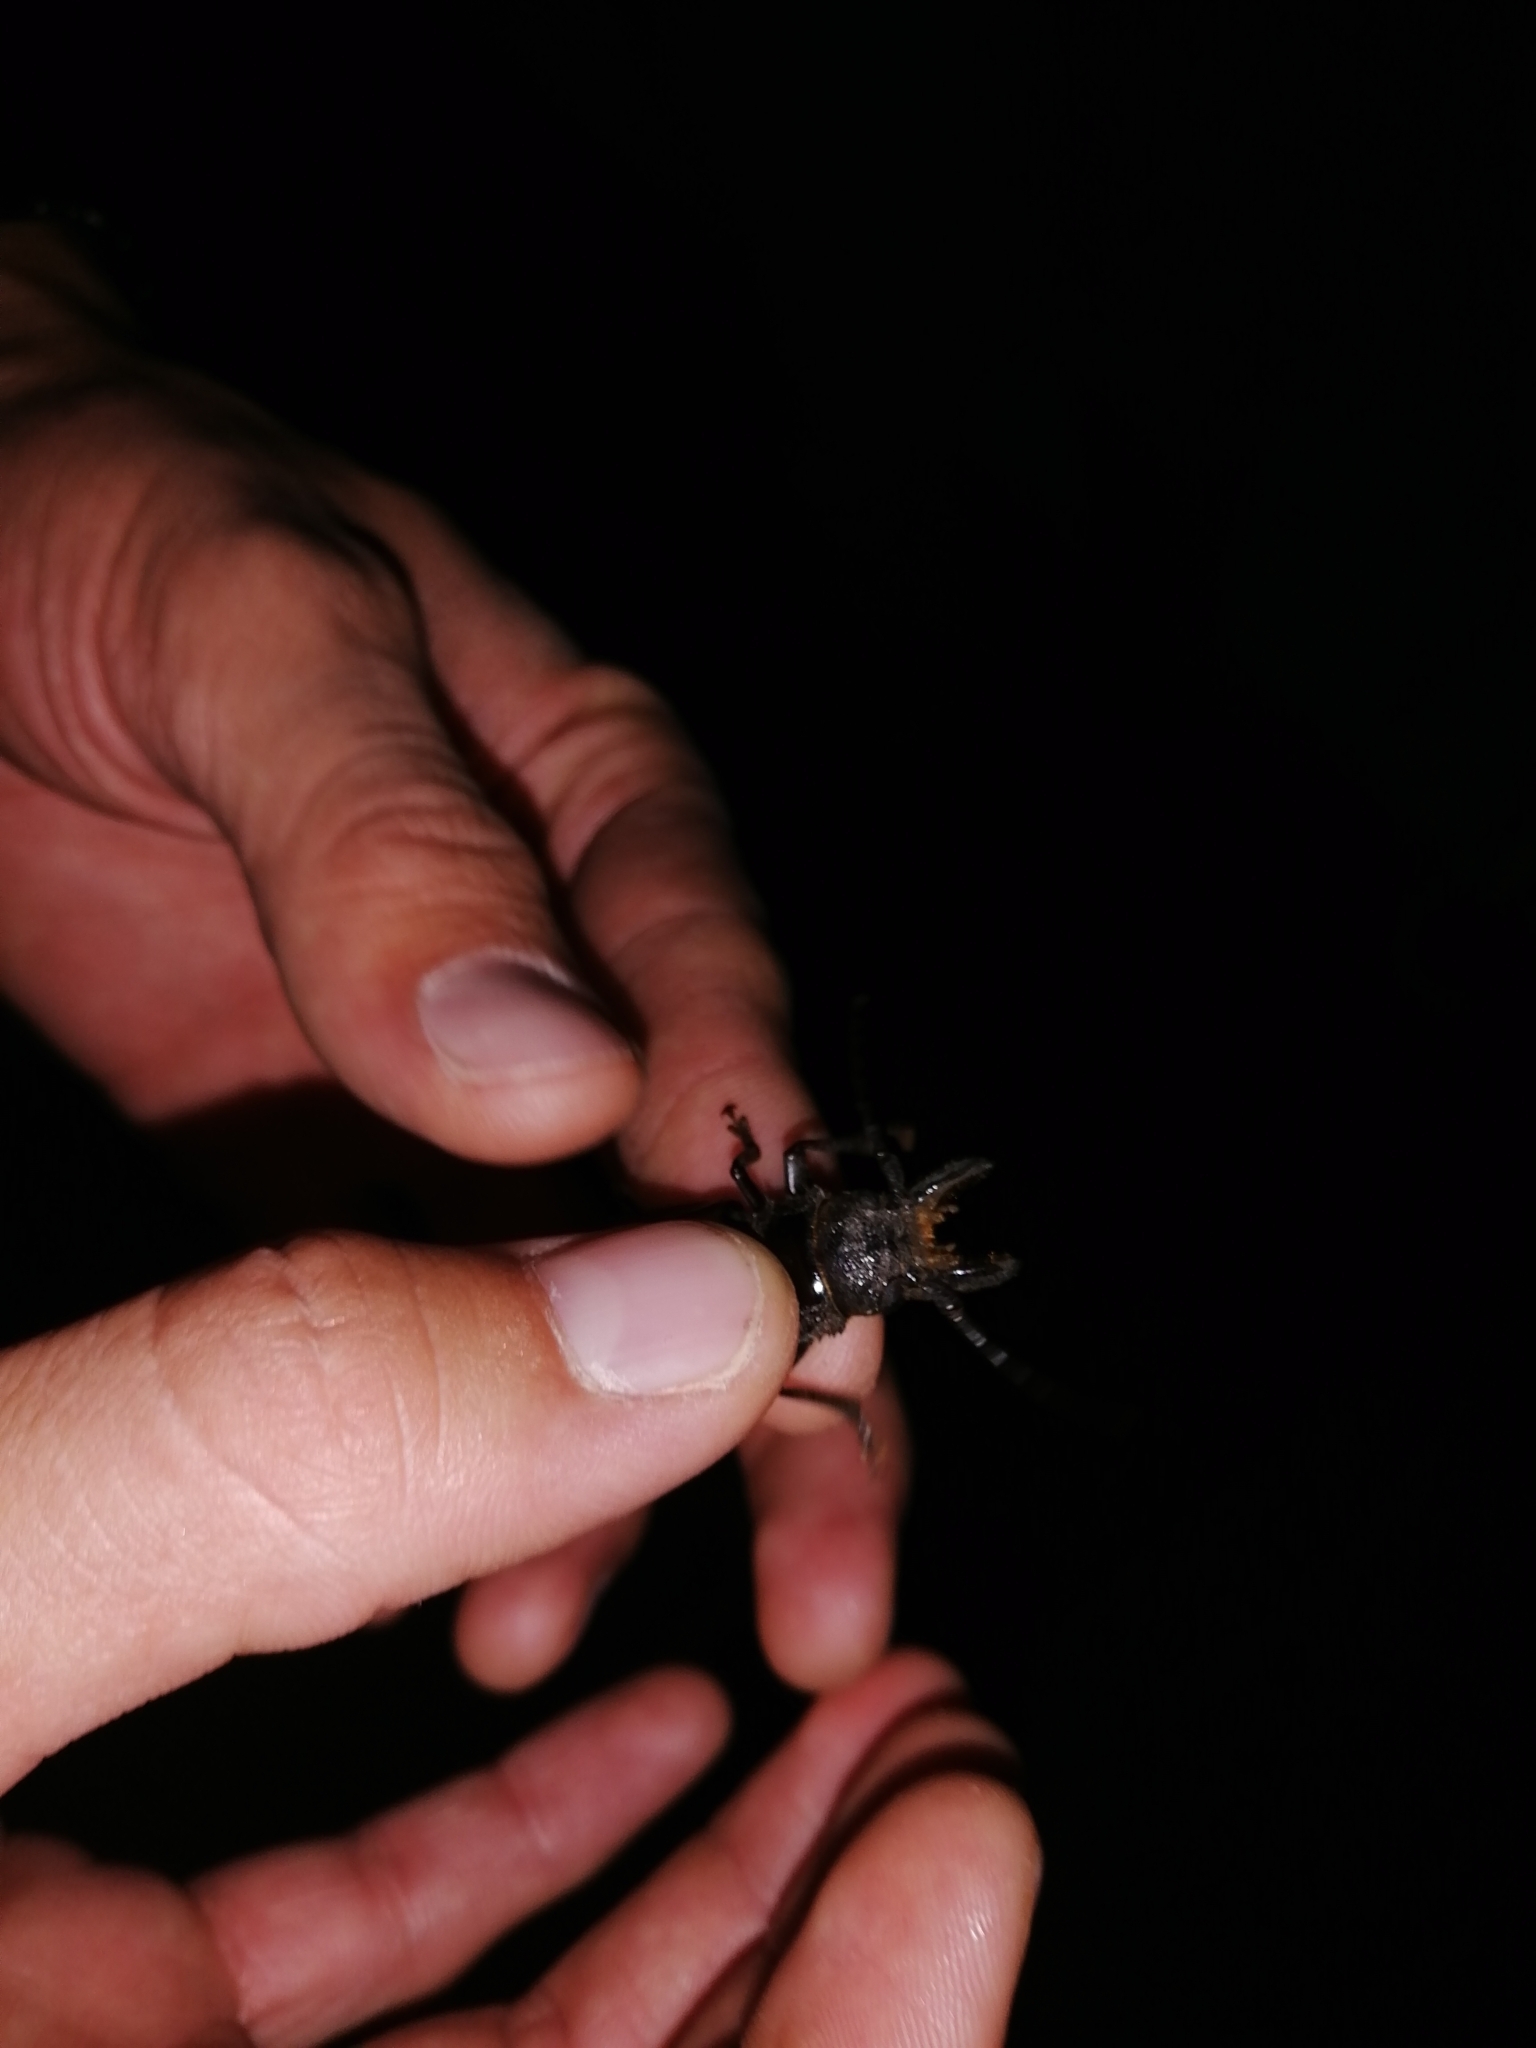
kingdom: Animalia
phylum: Arthropoda
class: Insecta
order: Coleoptera
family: Cerambycidae
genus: Nothopleurus
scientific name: Nothopleurus
